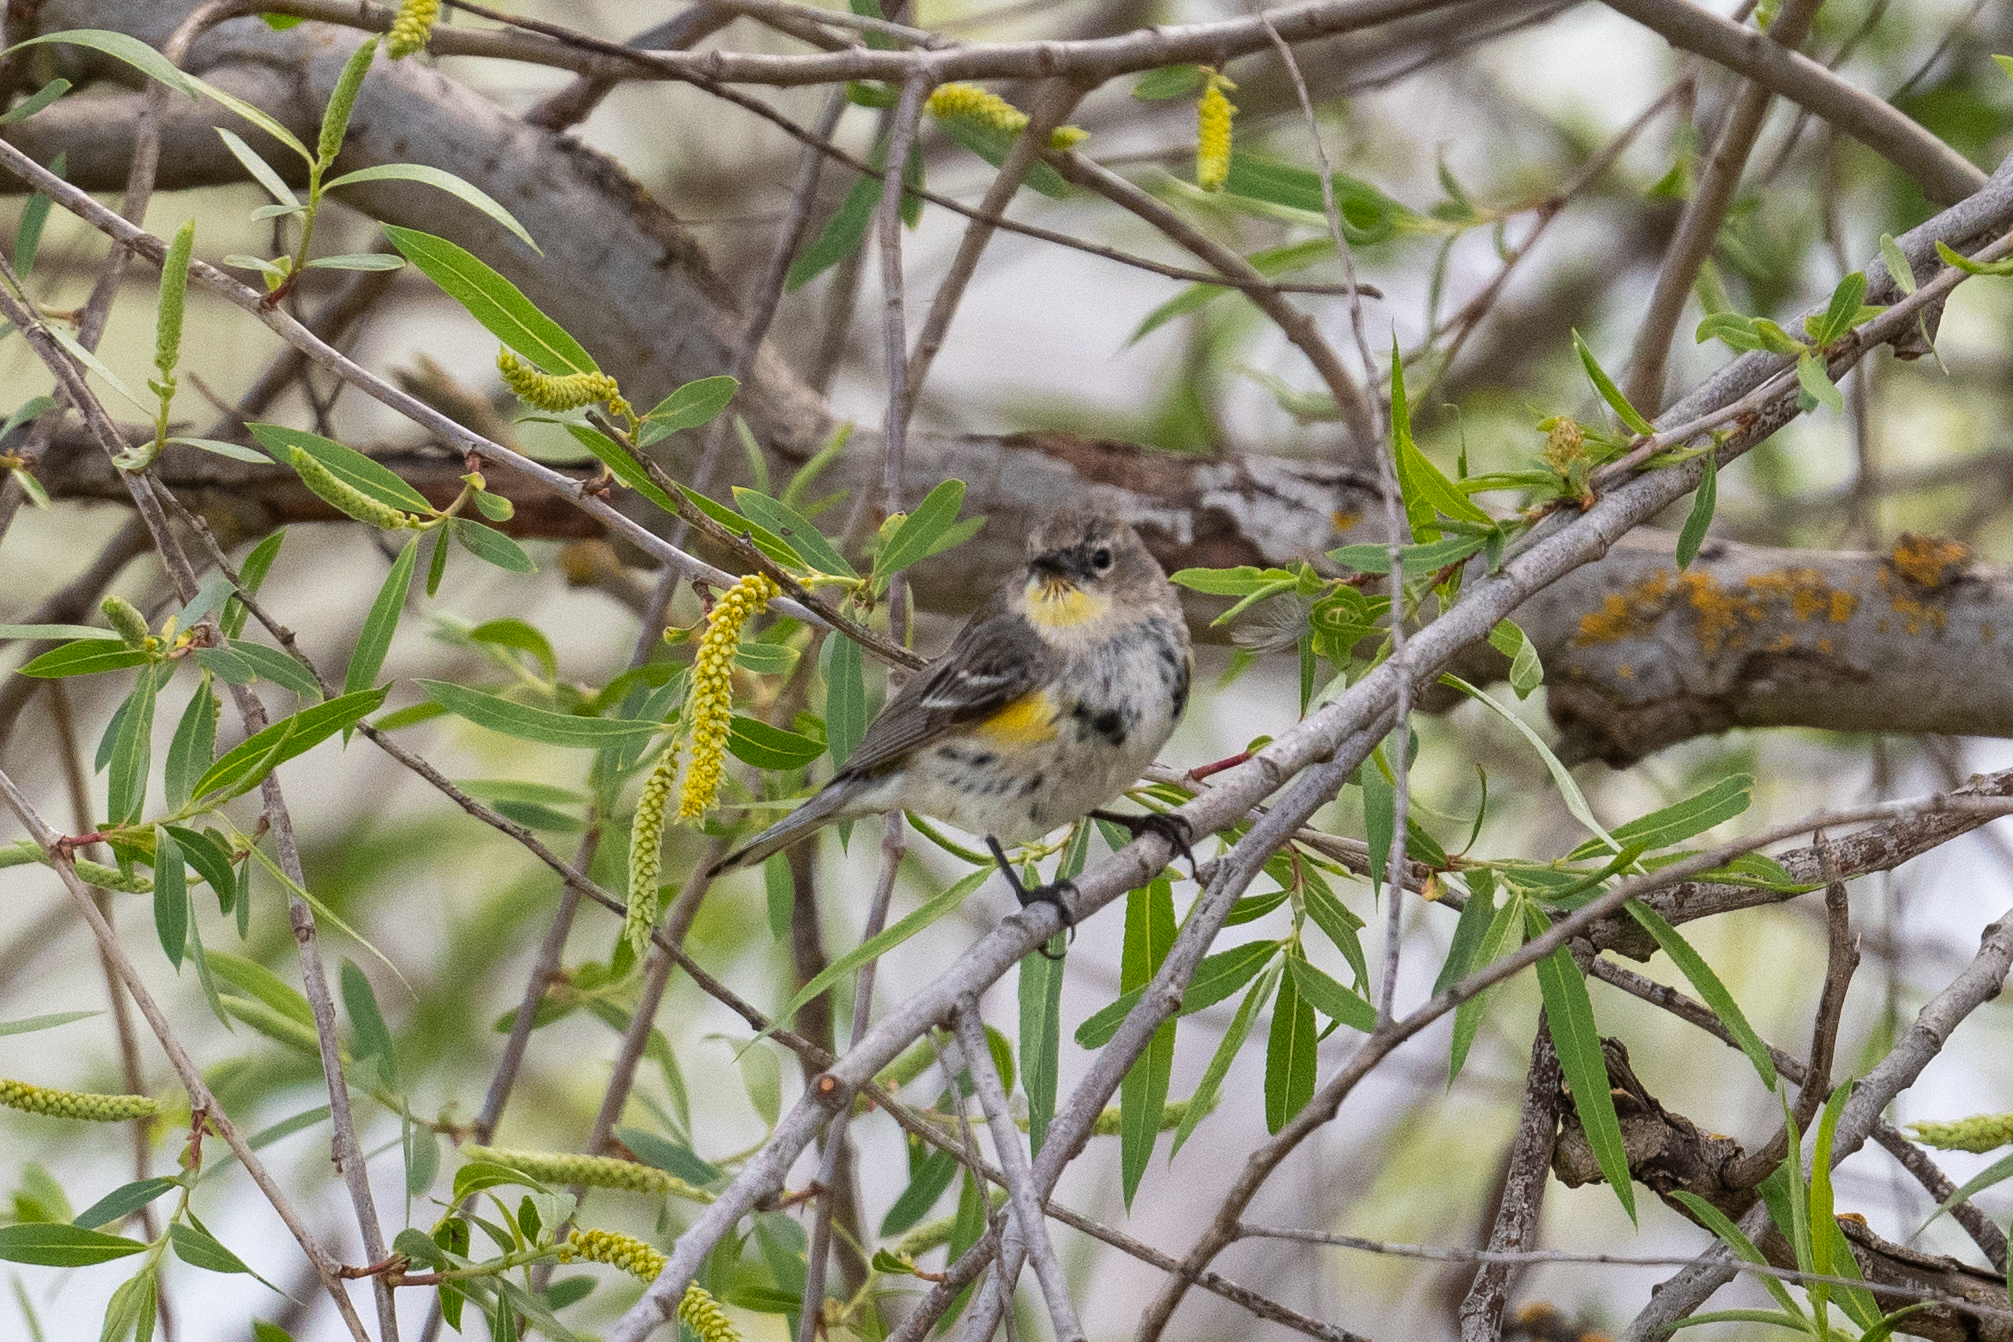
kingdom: Animalia
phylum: Chordata
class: Aves
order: Passeriformes
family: Parulidae
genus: Setophaga
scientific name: Setophaga coronata
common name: Myrtle warbler
